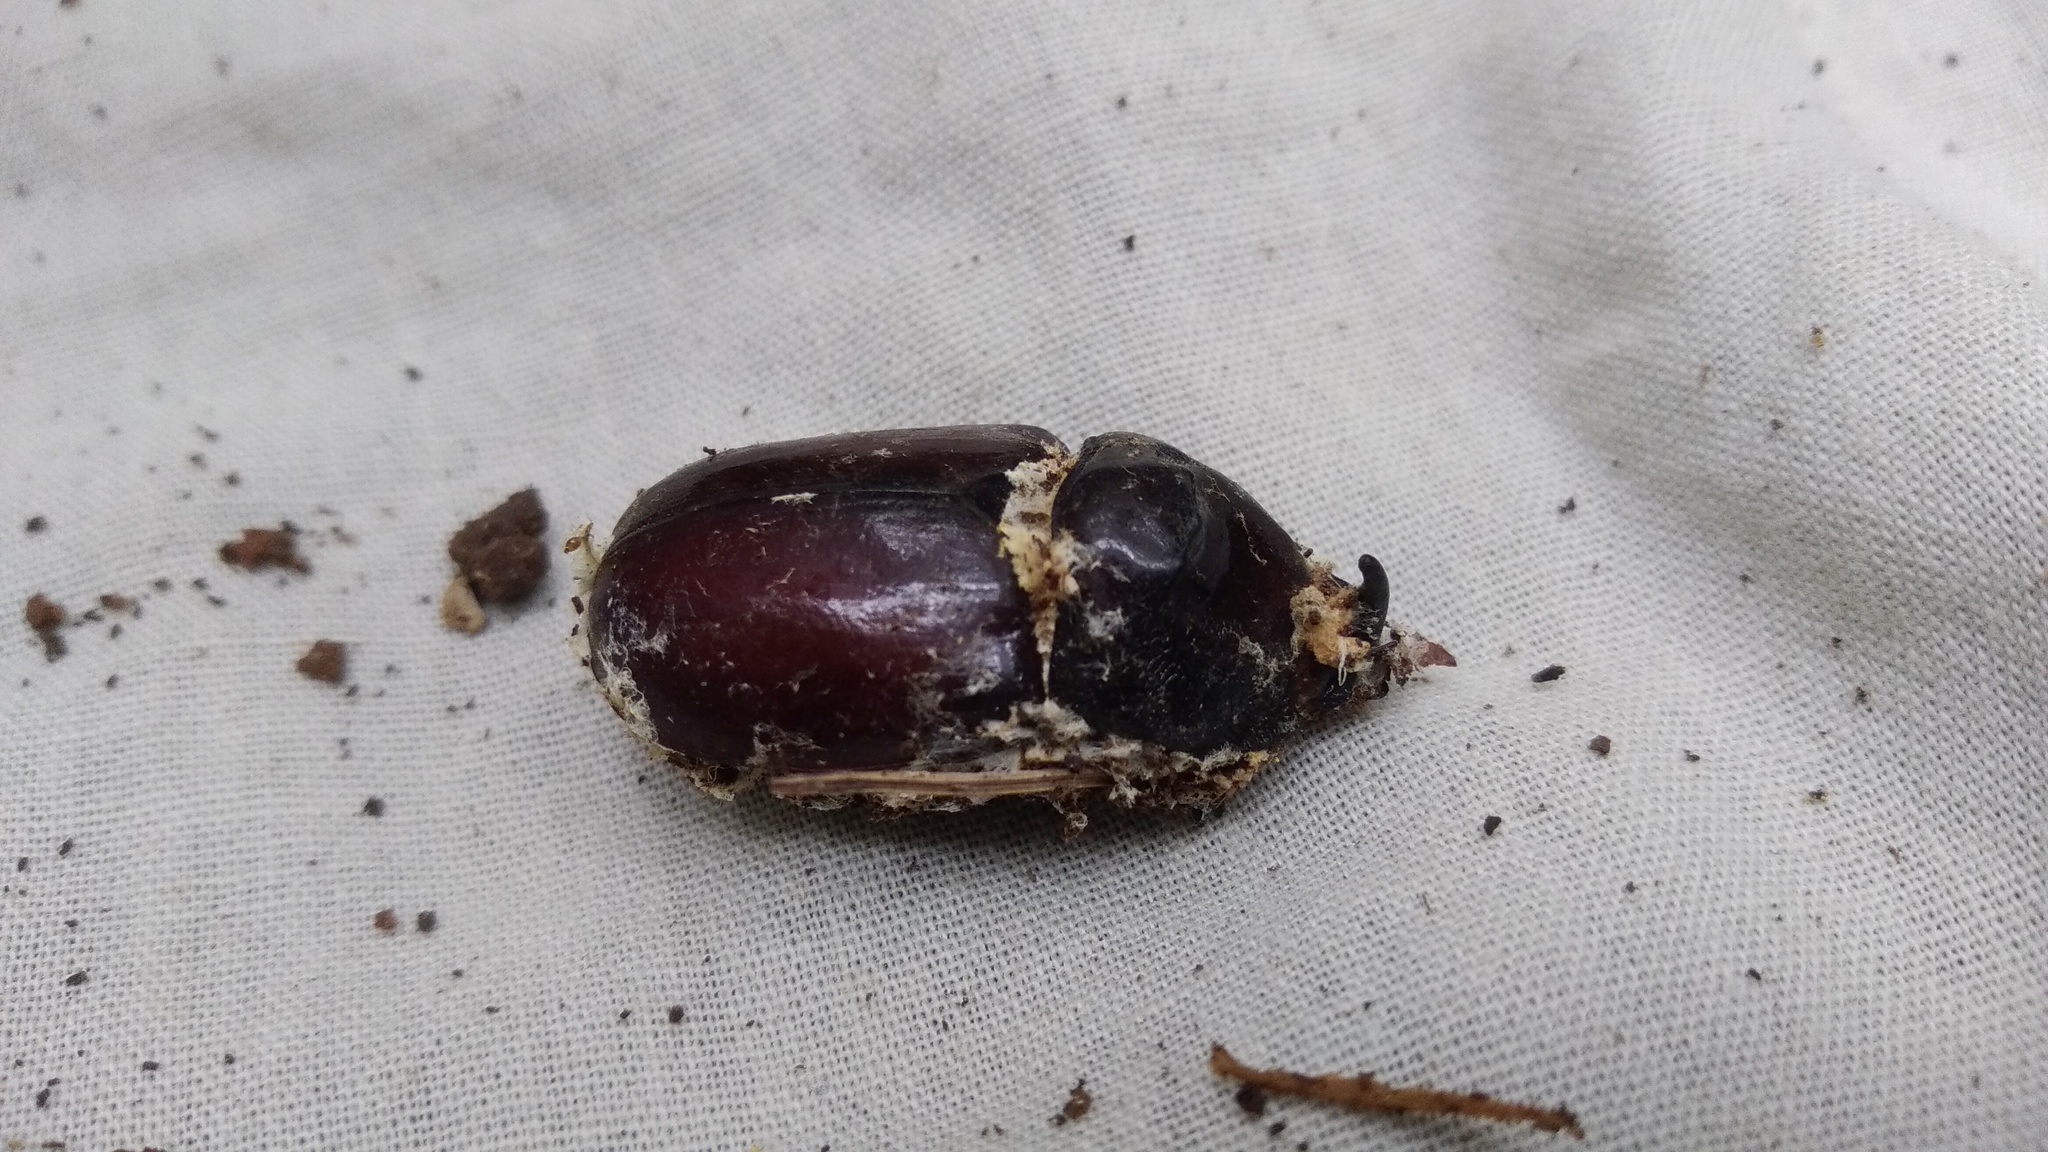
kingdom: Animalia
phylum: Arthropoda
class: Insecta
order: Coleoptera
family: Scarabaeidae
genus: Oryctes
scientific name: Oryctes nasicornis
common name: European rhinoceros beetle
